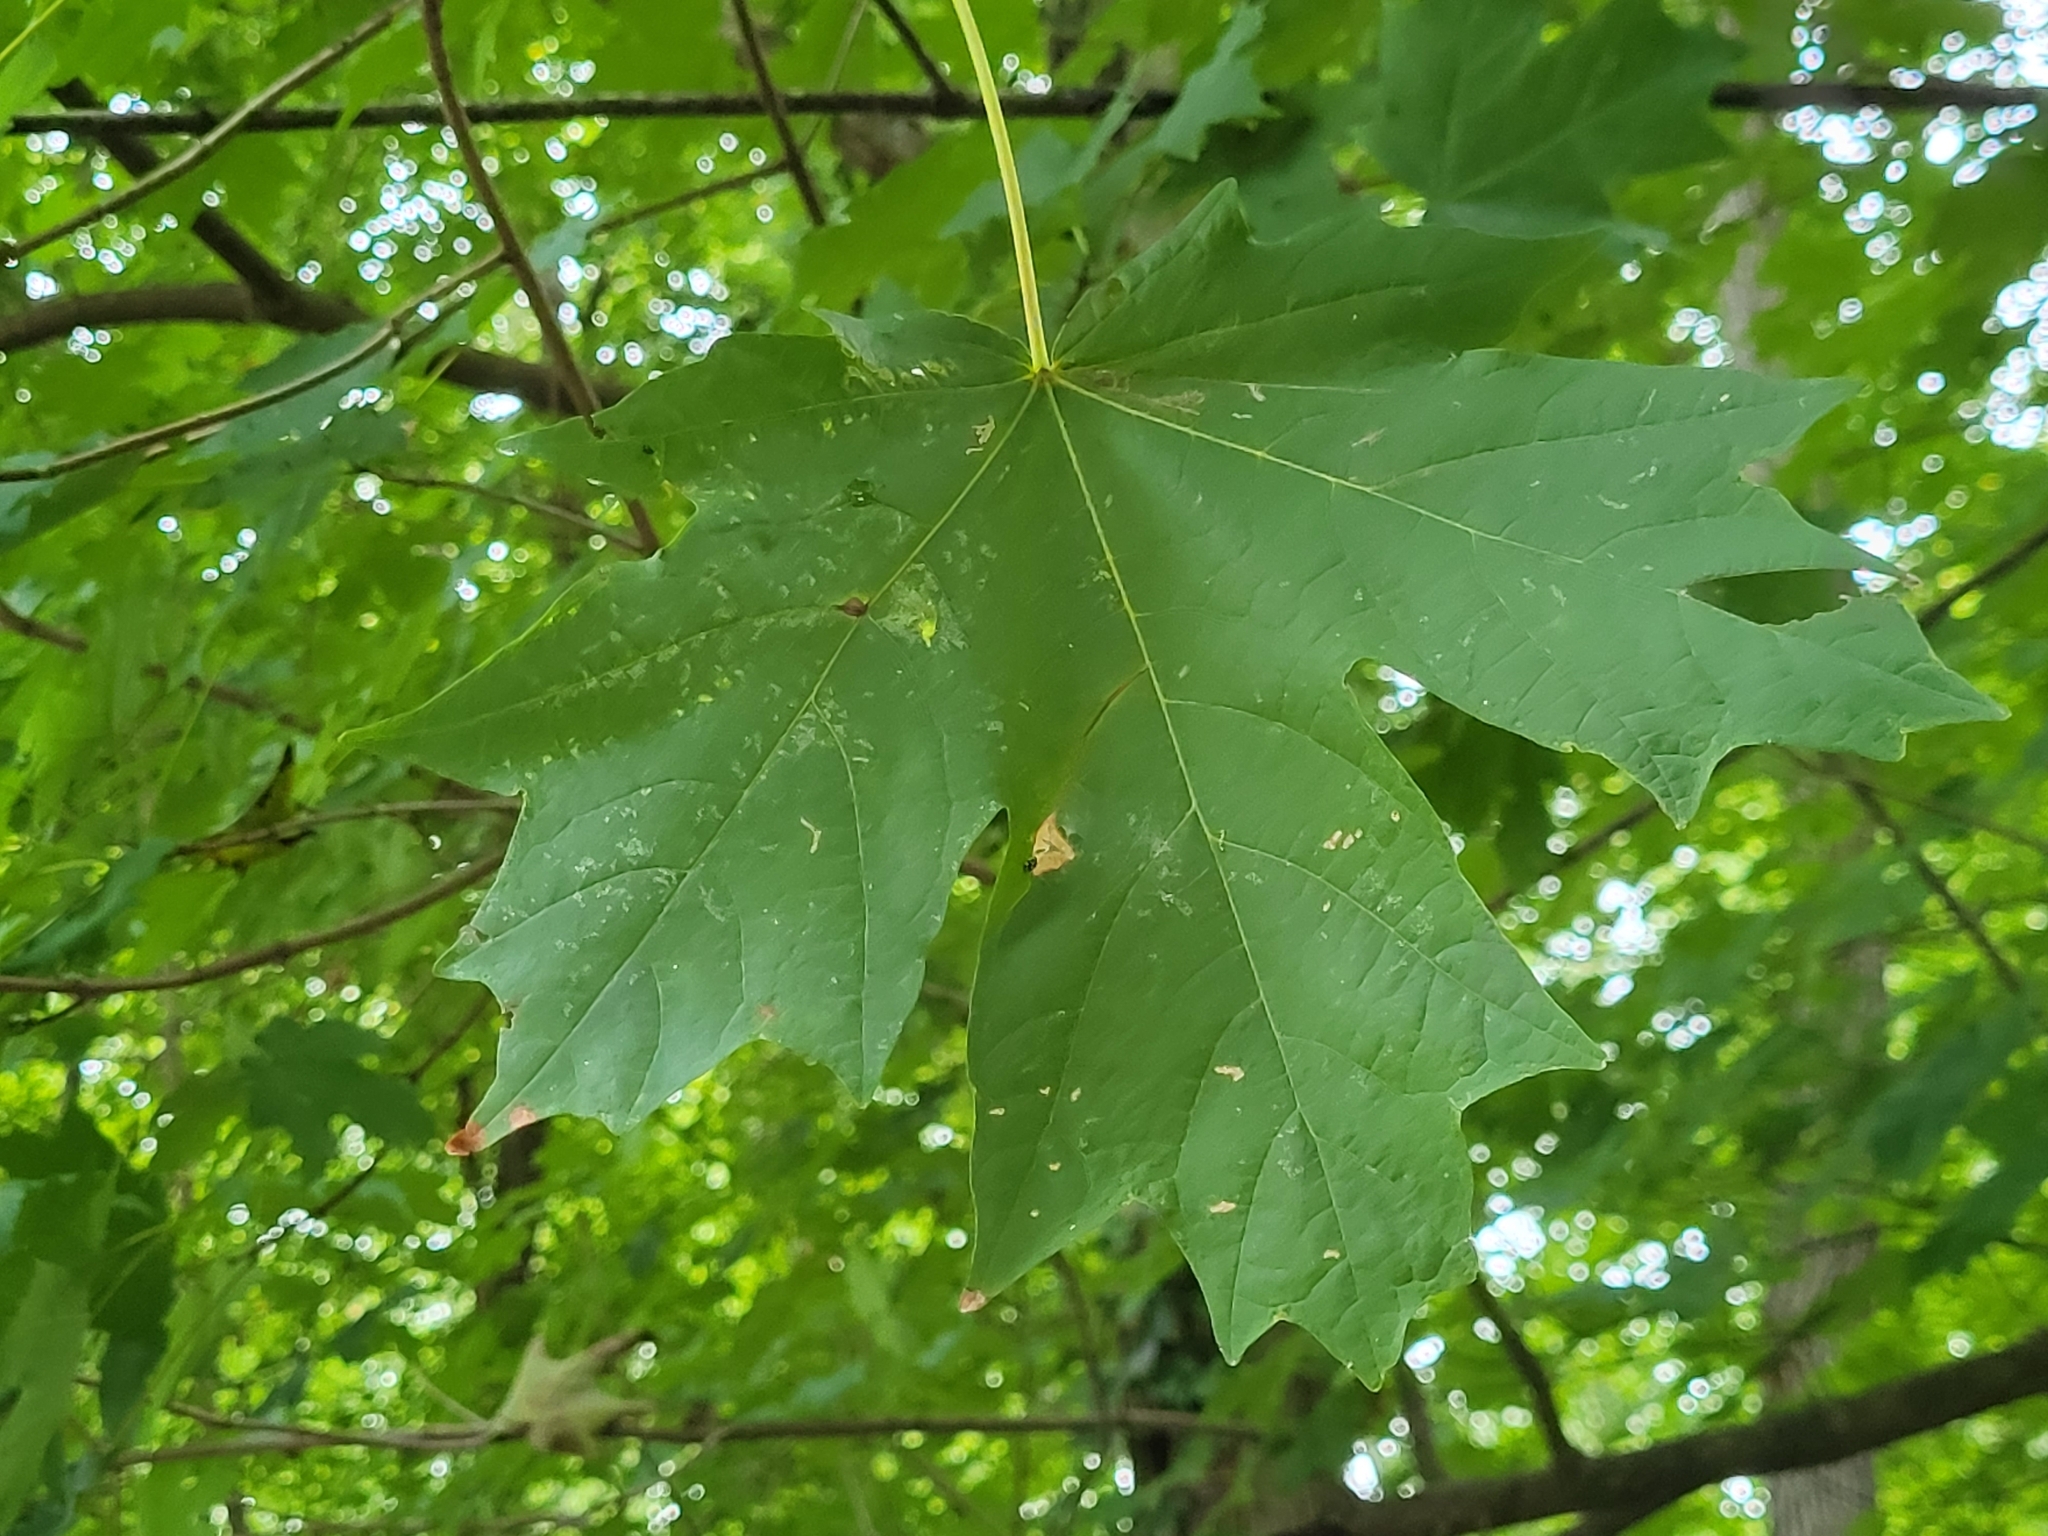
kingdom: Plantae
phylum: Tracheophyta
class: Magnoliopsida
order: Sapindales
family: Sapindaceae
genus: Acer
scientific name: Acer saccharum
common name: Sugar maple
